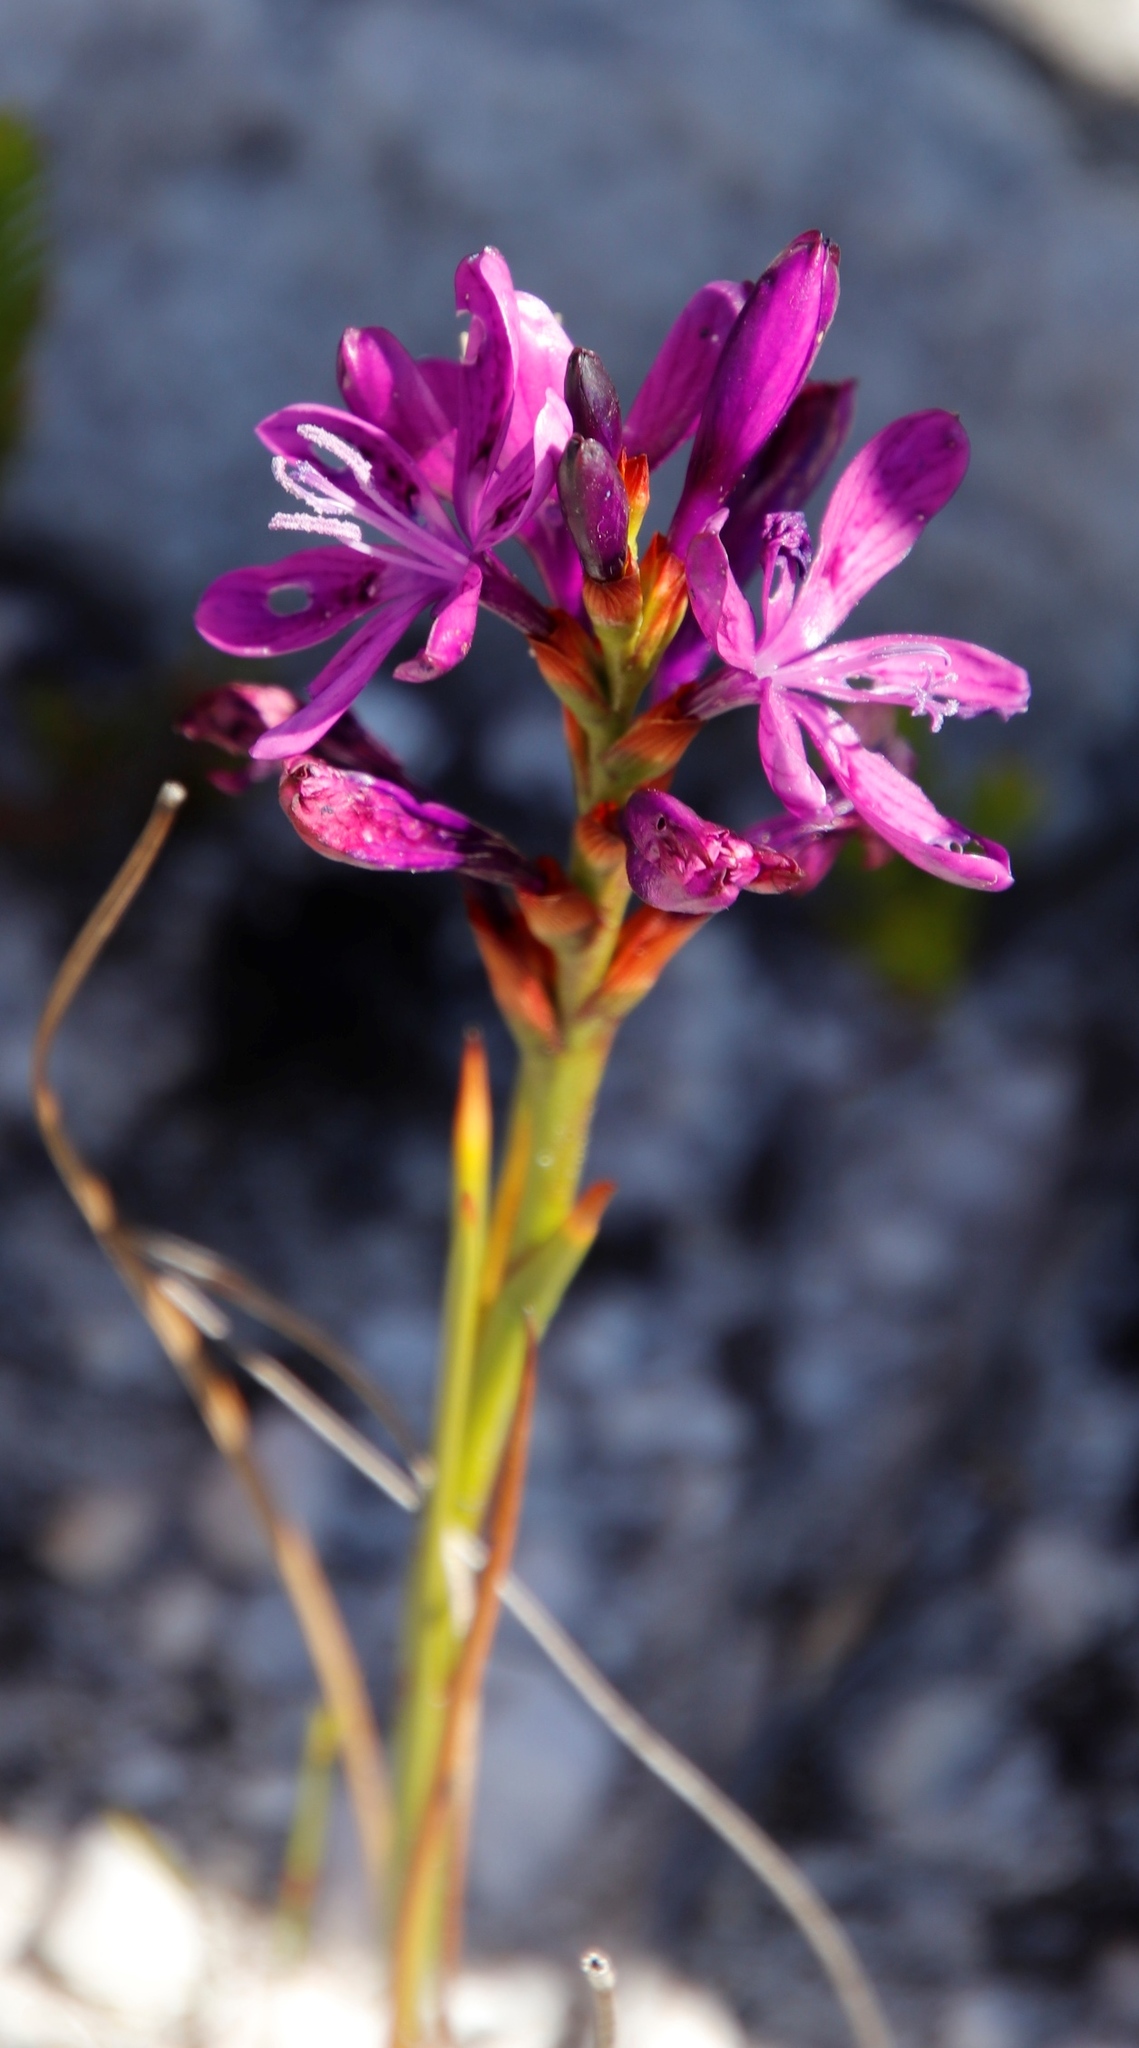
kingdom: Plantae
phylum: Tracheophyta
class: Liliopsida
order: Asparagales
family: Iridaceae
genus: Thereianthus
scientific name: Thereianthus bracteolatus
